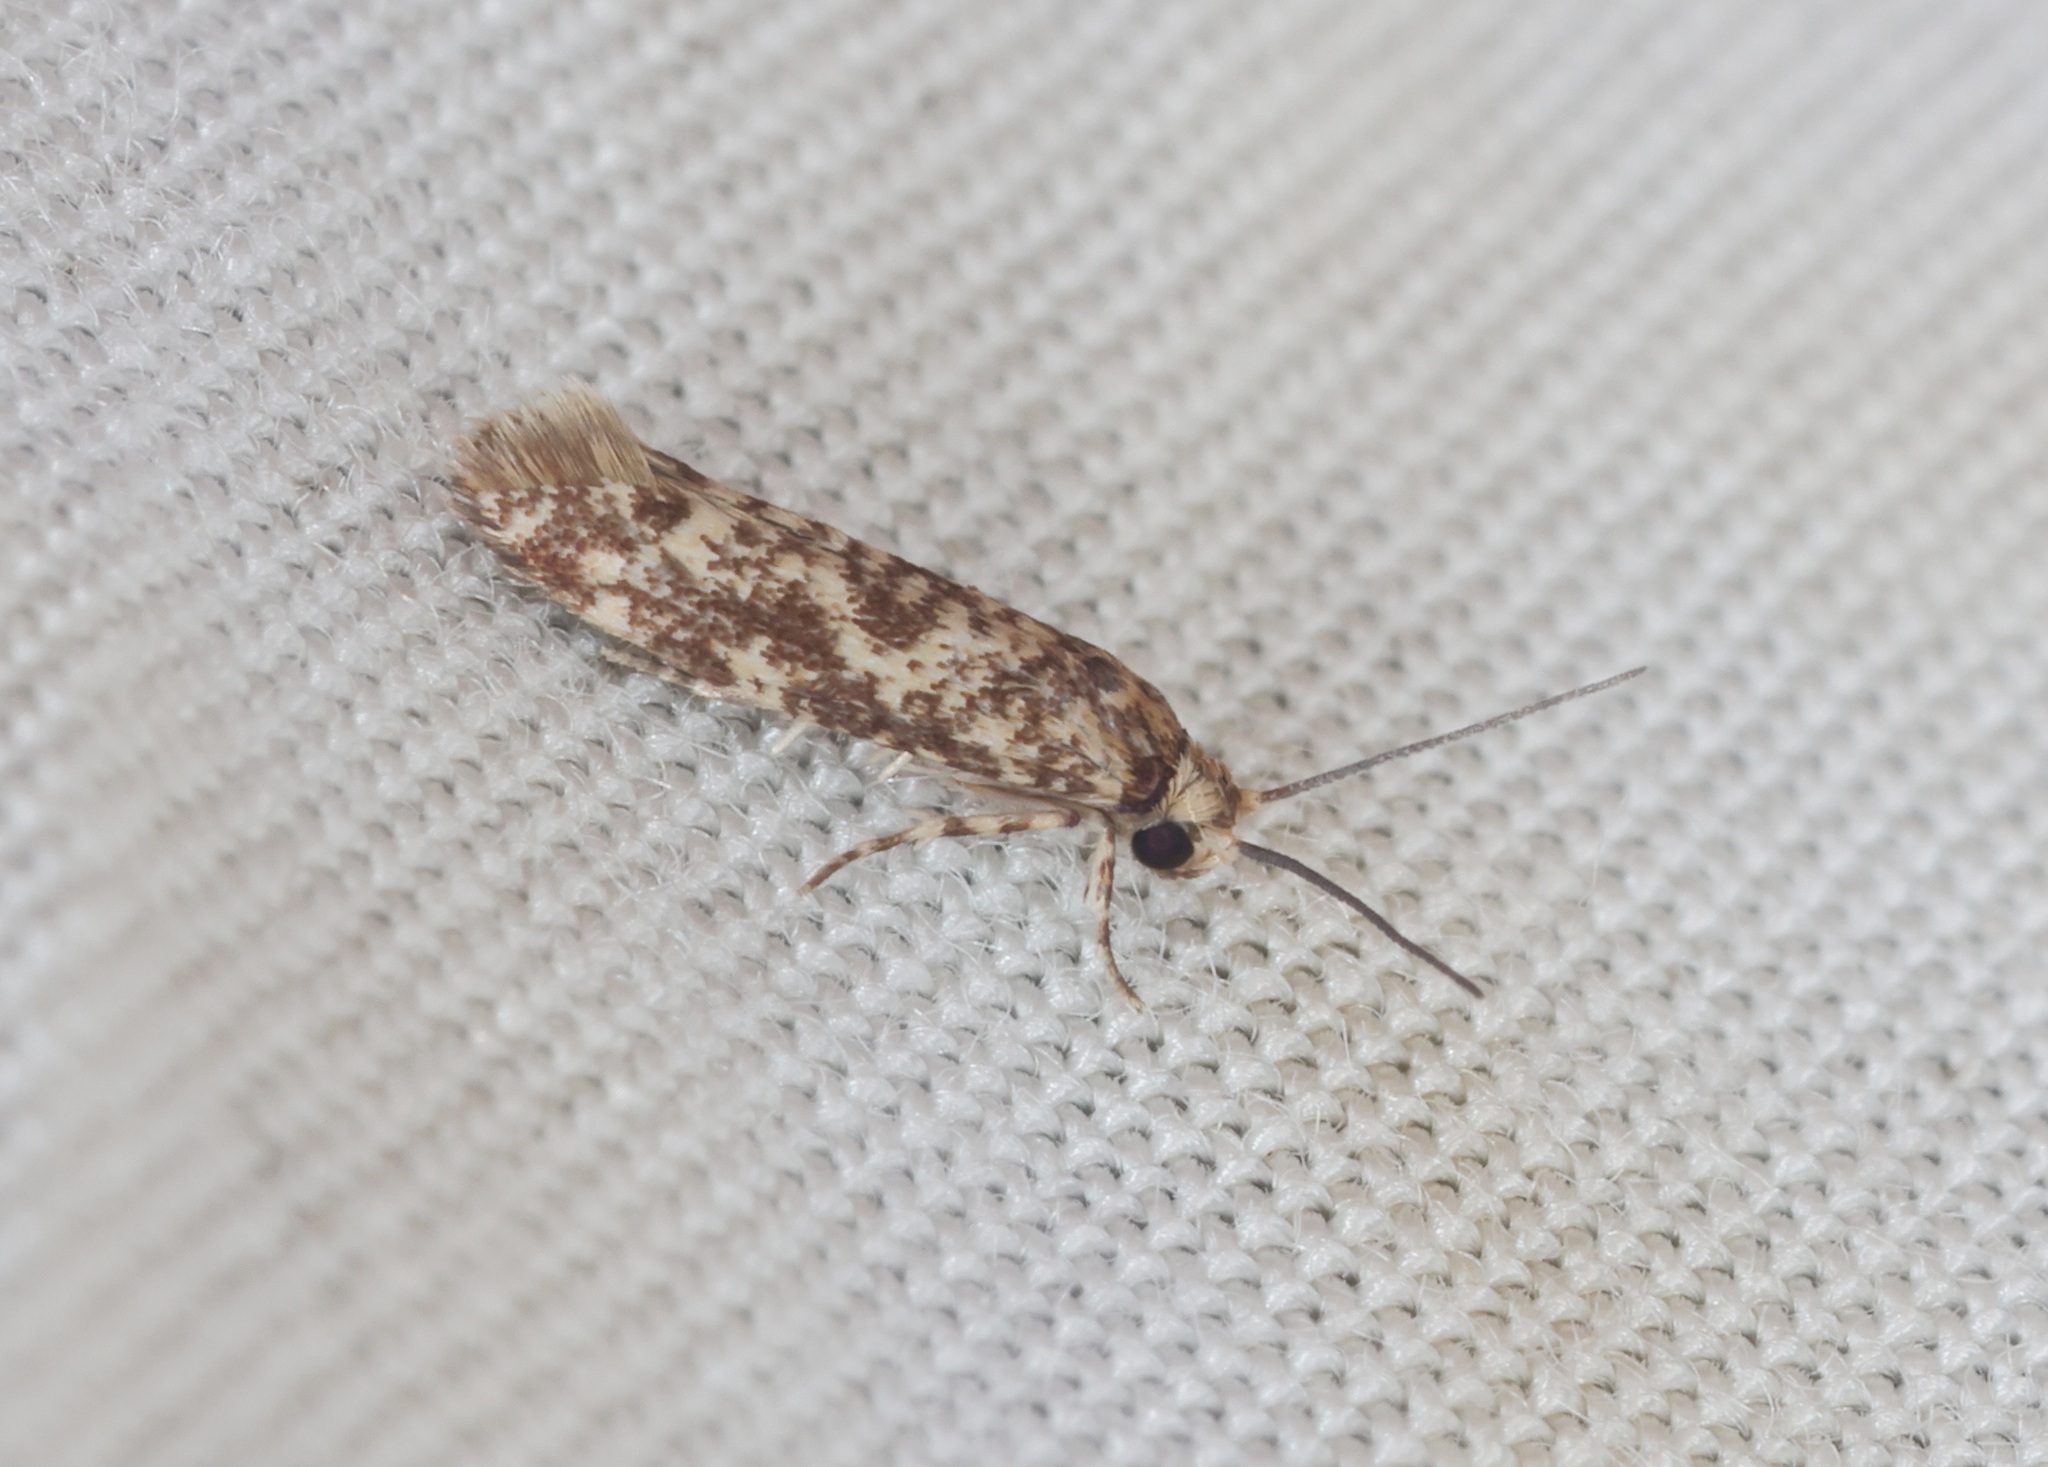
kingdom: Animalia
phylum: Arthropoda
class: Insecta
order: Lepidoptera
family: Praydidae
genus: Prays
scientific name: Prays
